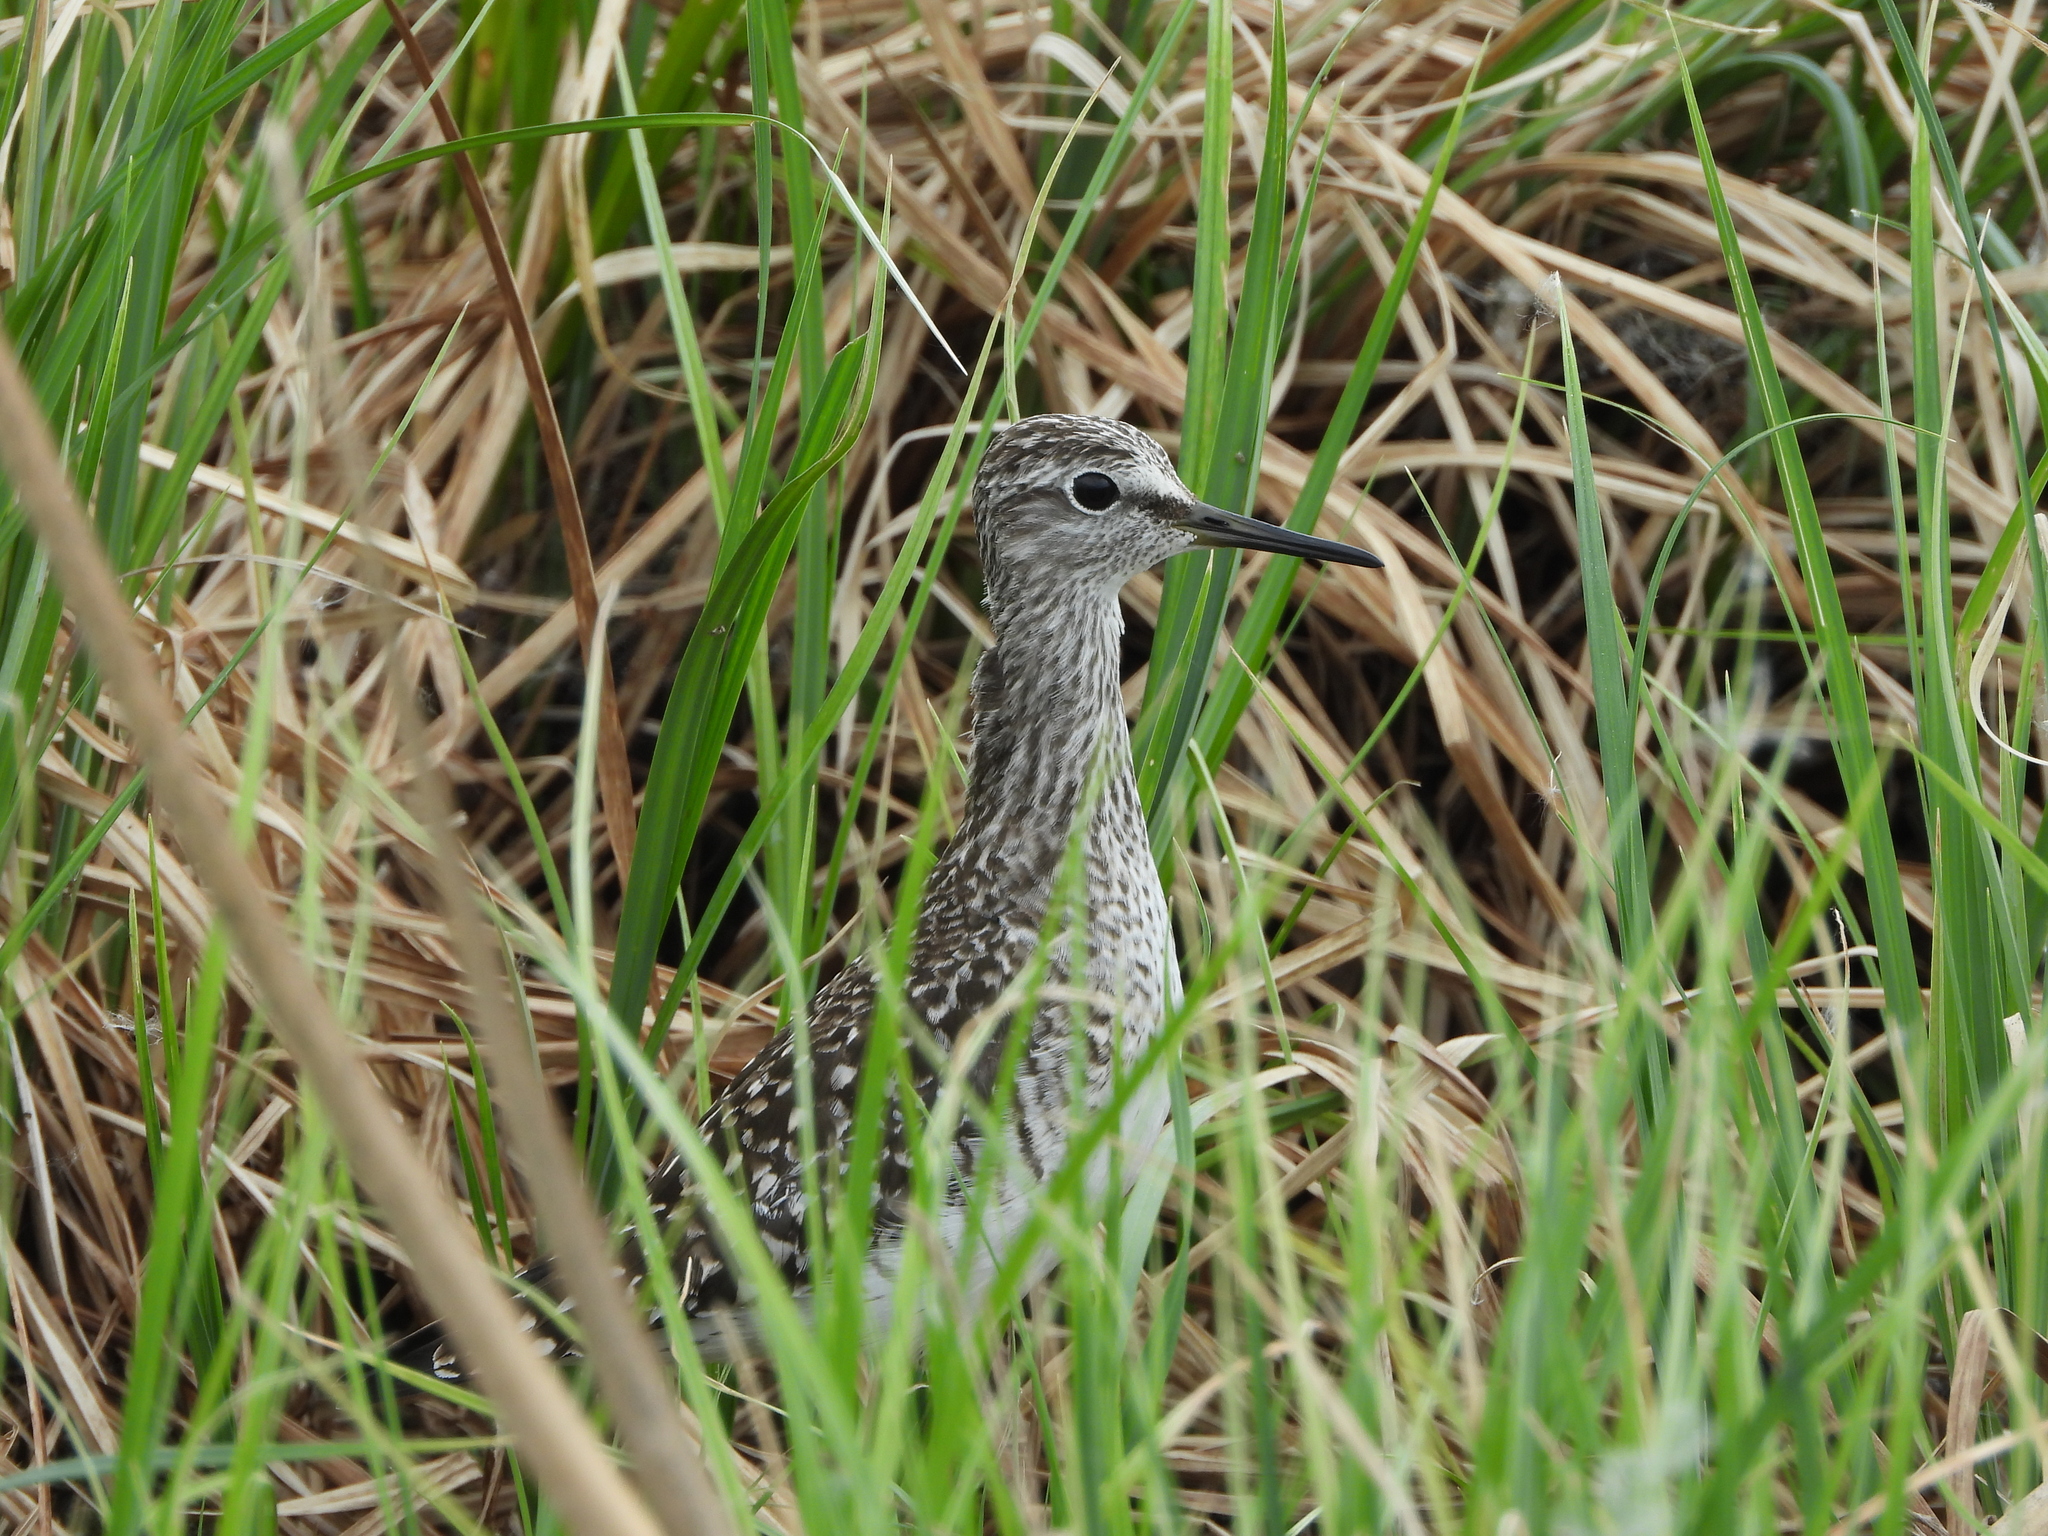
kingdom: Animalia
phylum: Chordata
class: Aves
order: Charadriiformes
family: Scolopacidae
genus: Tringa
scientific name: Tringa glareola
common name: Wood sandpiper
